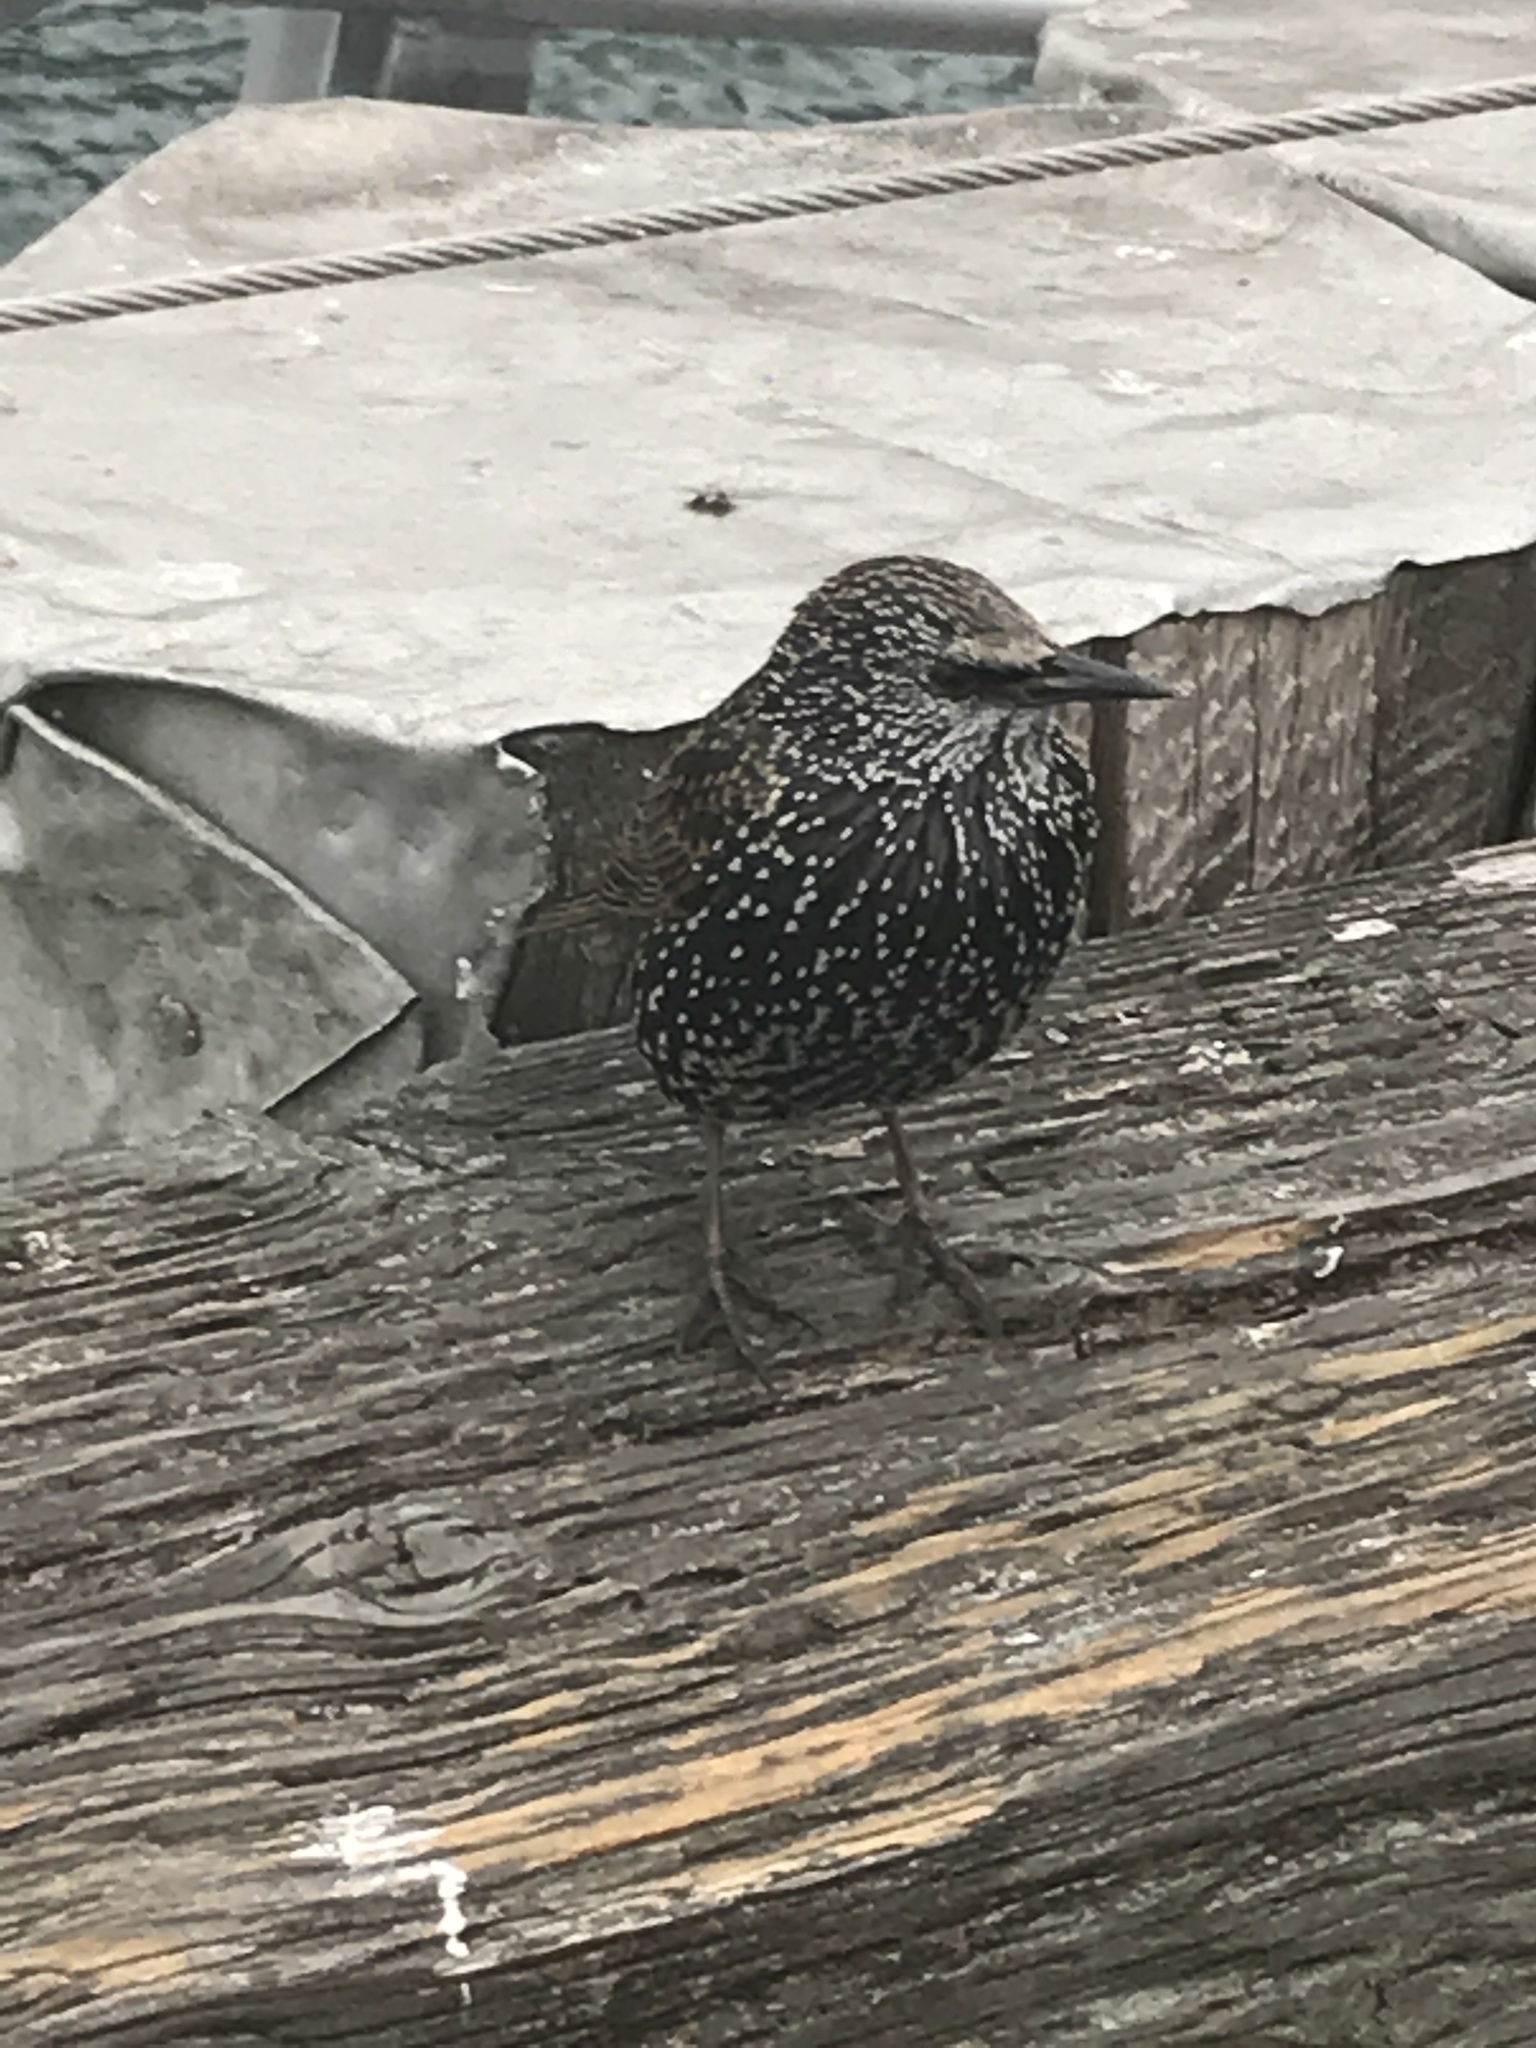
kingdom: Animalia
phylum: Chordata
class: Aves
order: Passeriformes
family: Sturnidae
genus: Sturnus
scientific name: Sturnus vulgaris
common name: Common starling
